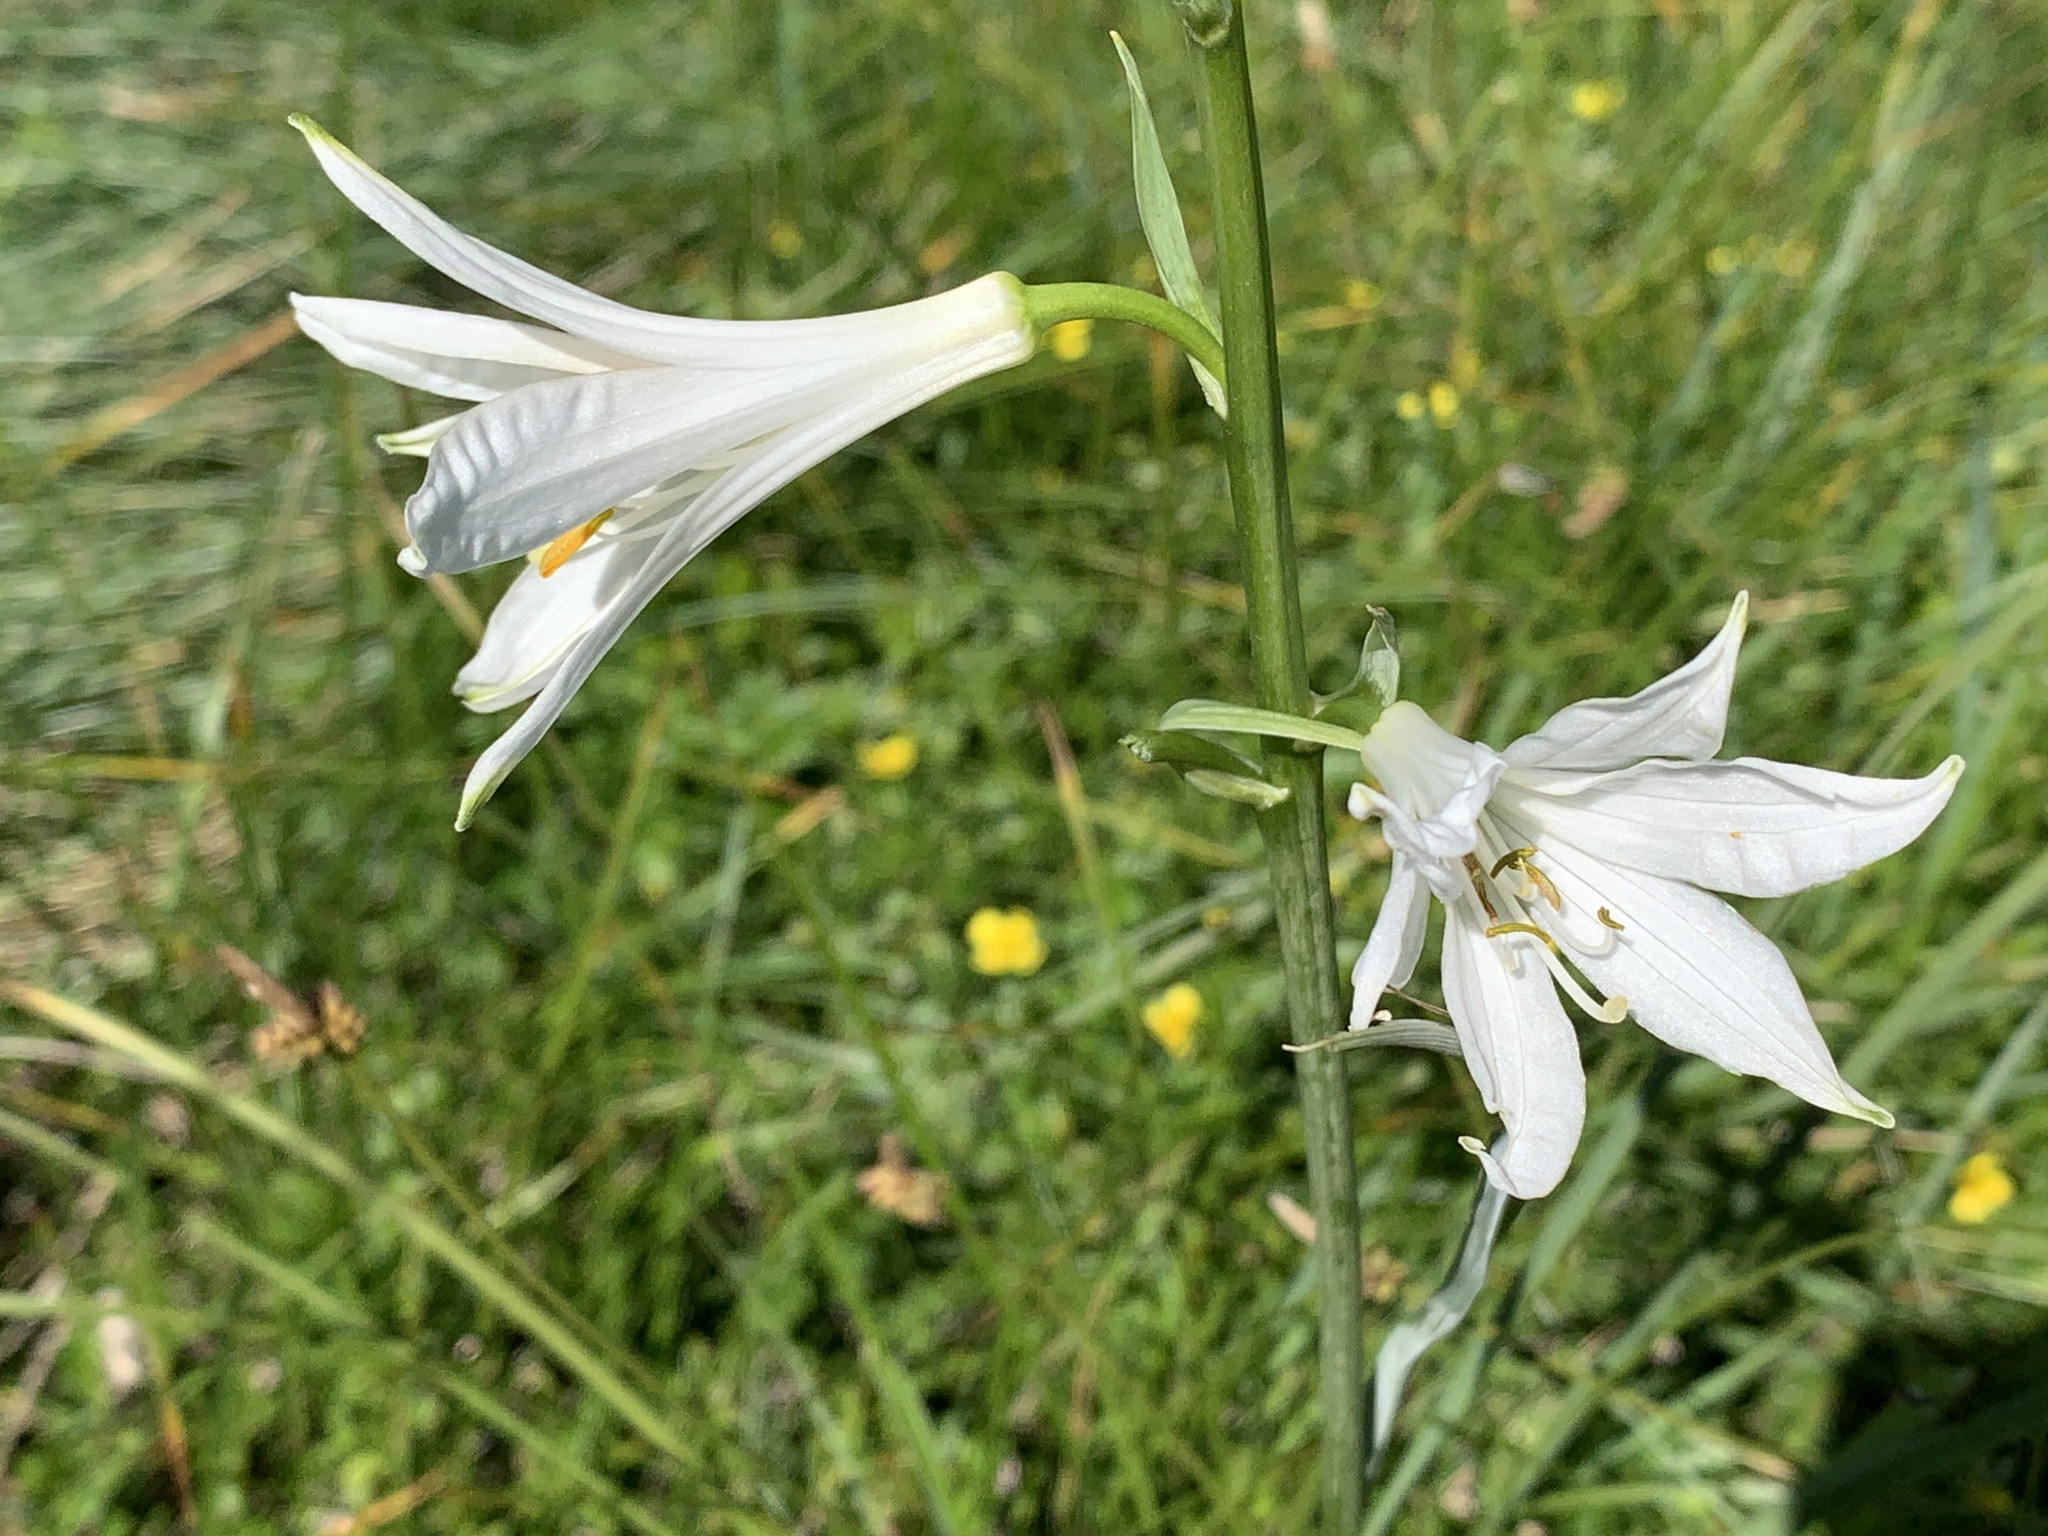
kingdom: Plantae
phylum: Tracheophyta
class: Liliopsida
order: Asparagales
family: Asparagaceae
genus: Paradisea
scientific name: Paradisea liliastrum
